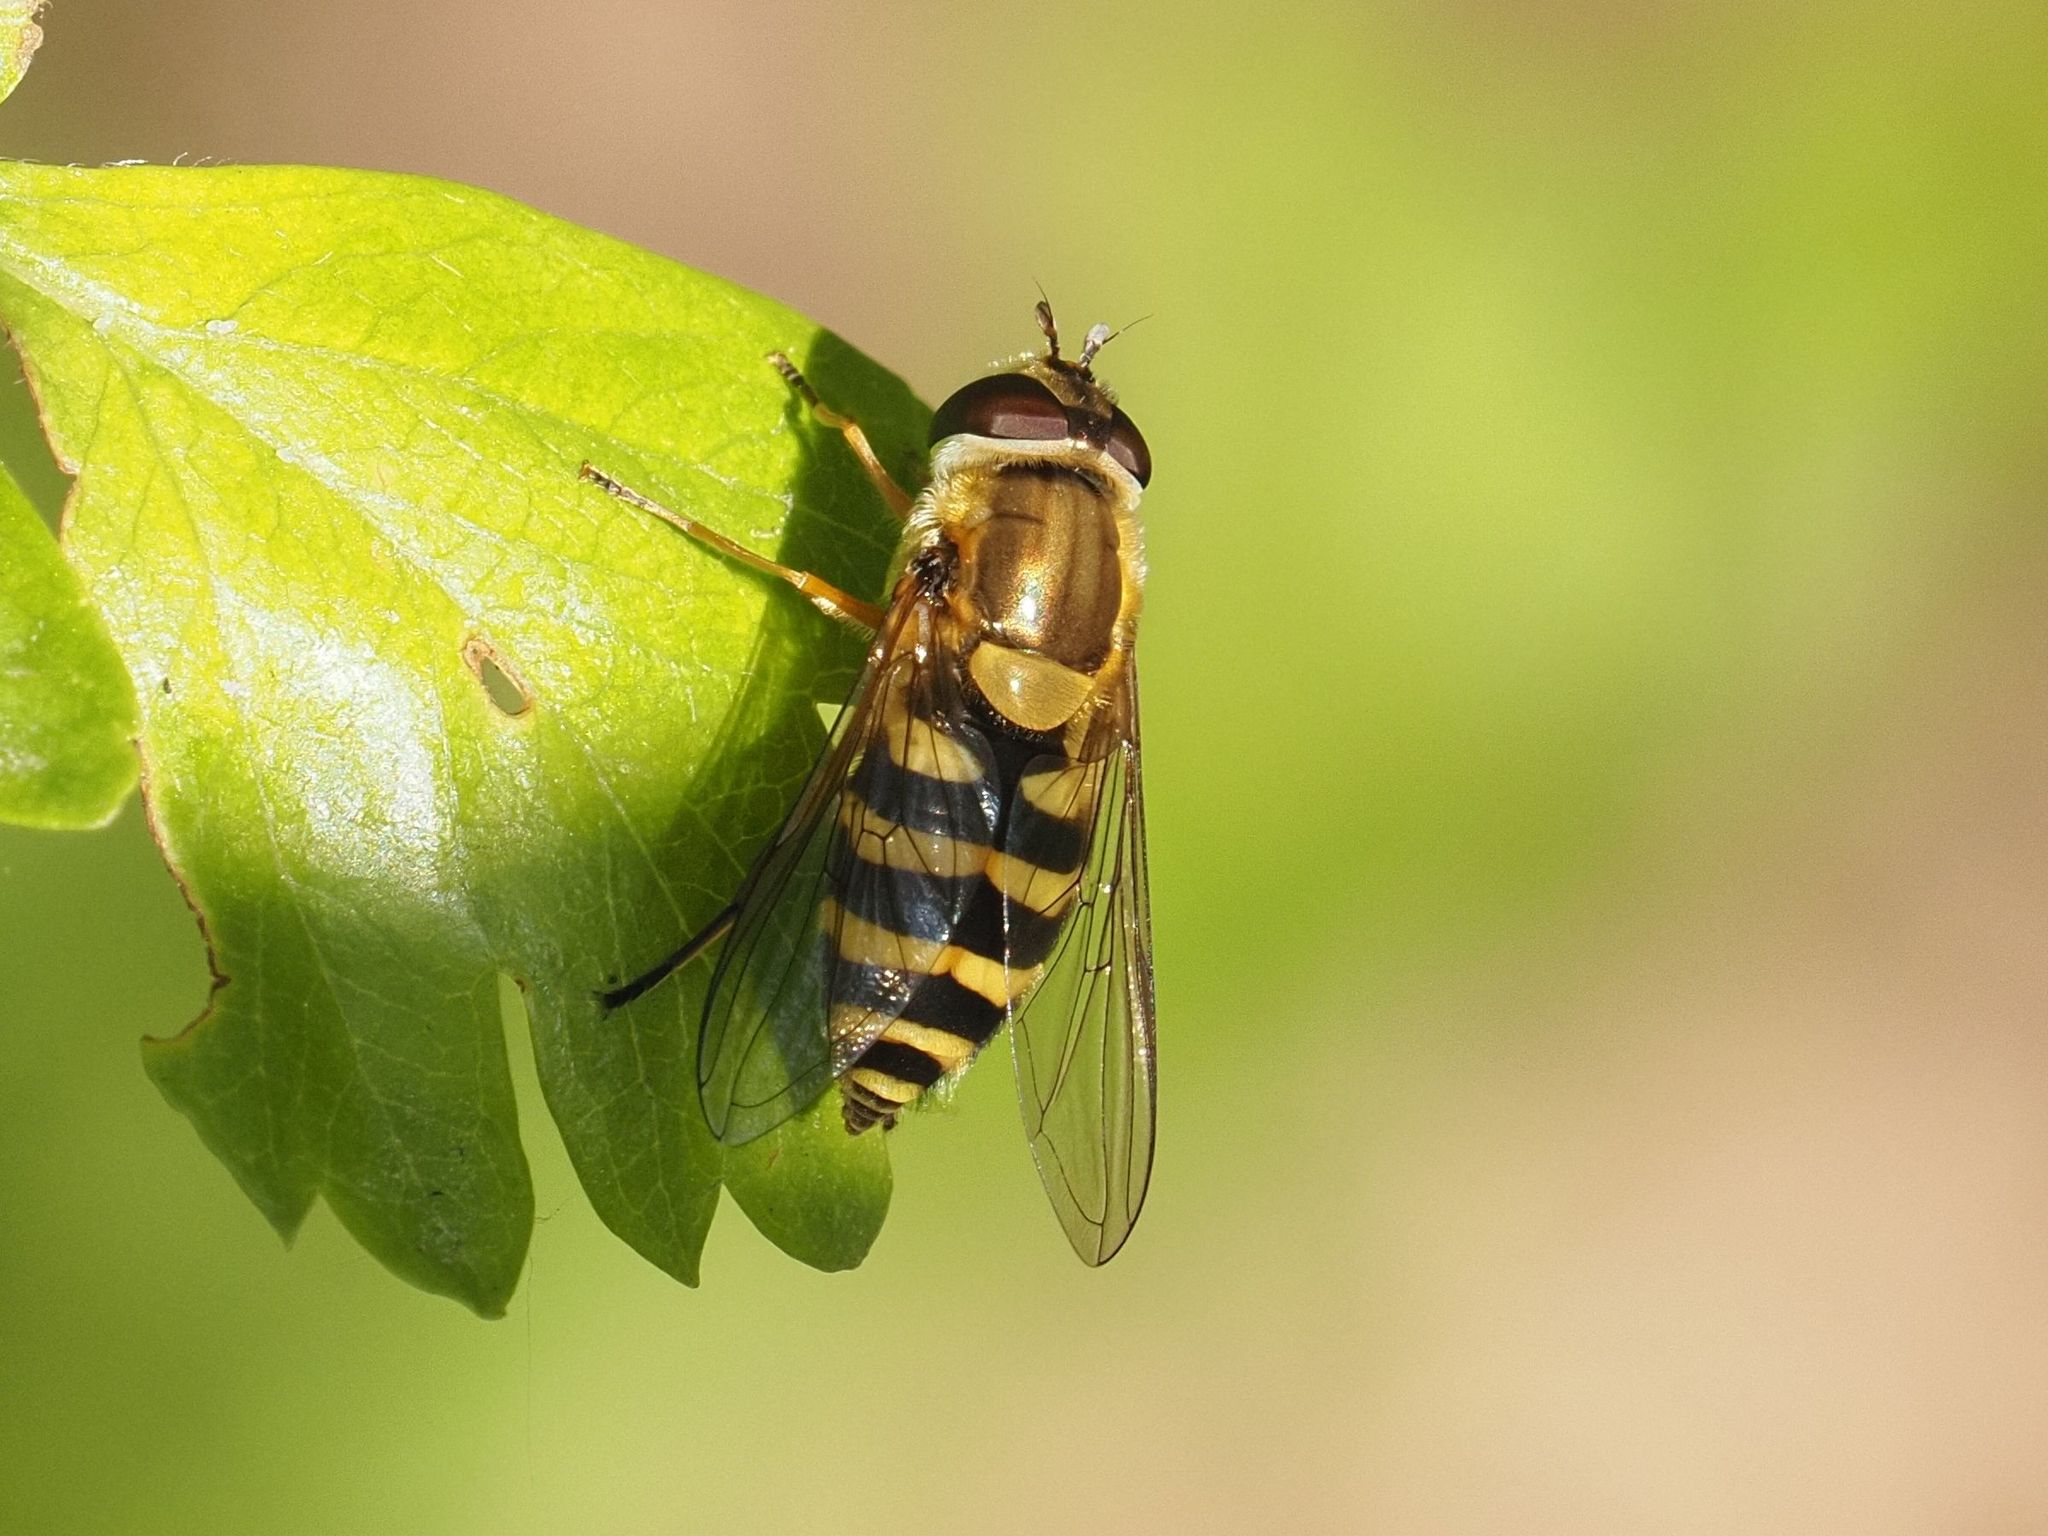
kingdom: Animalia
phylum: Arthropoda
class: Insecta
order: Diptera
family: Syrphidae
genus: Syrphus
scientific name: Syrphus
